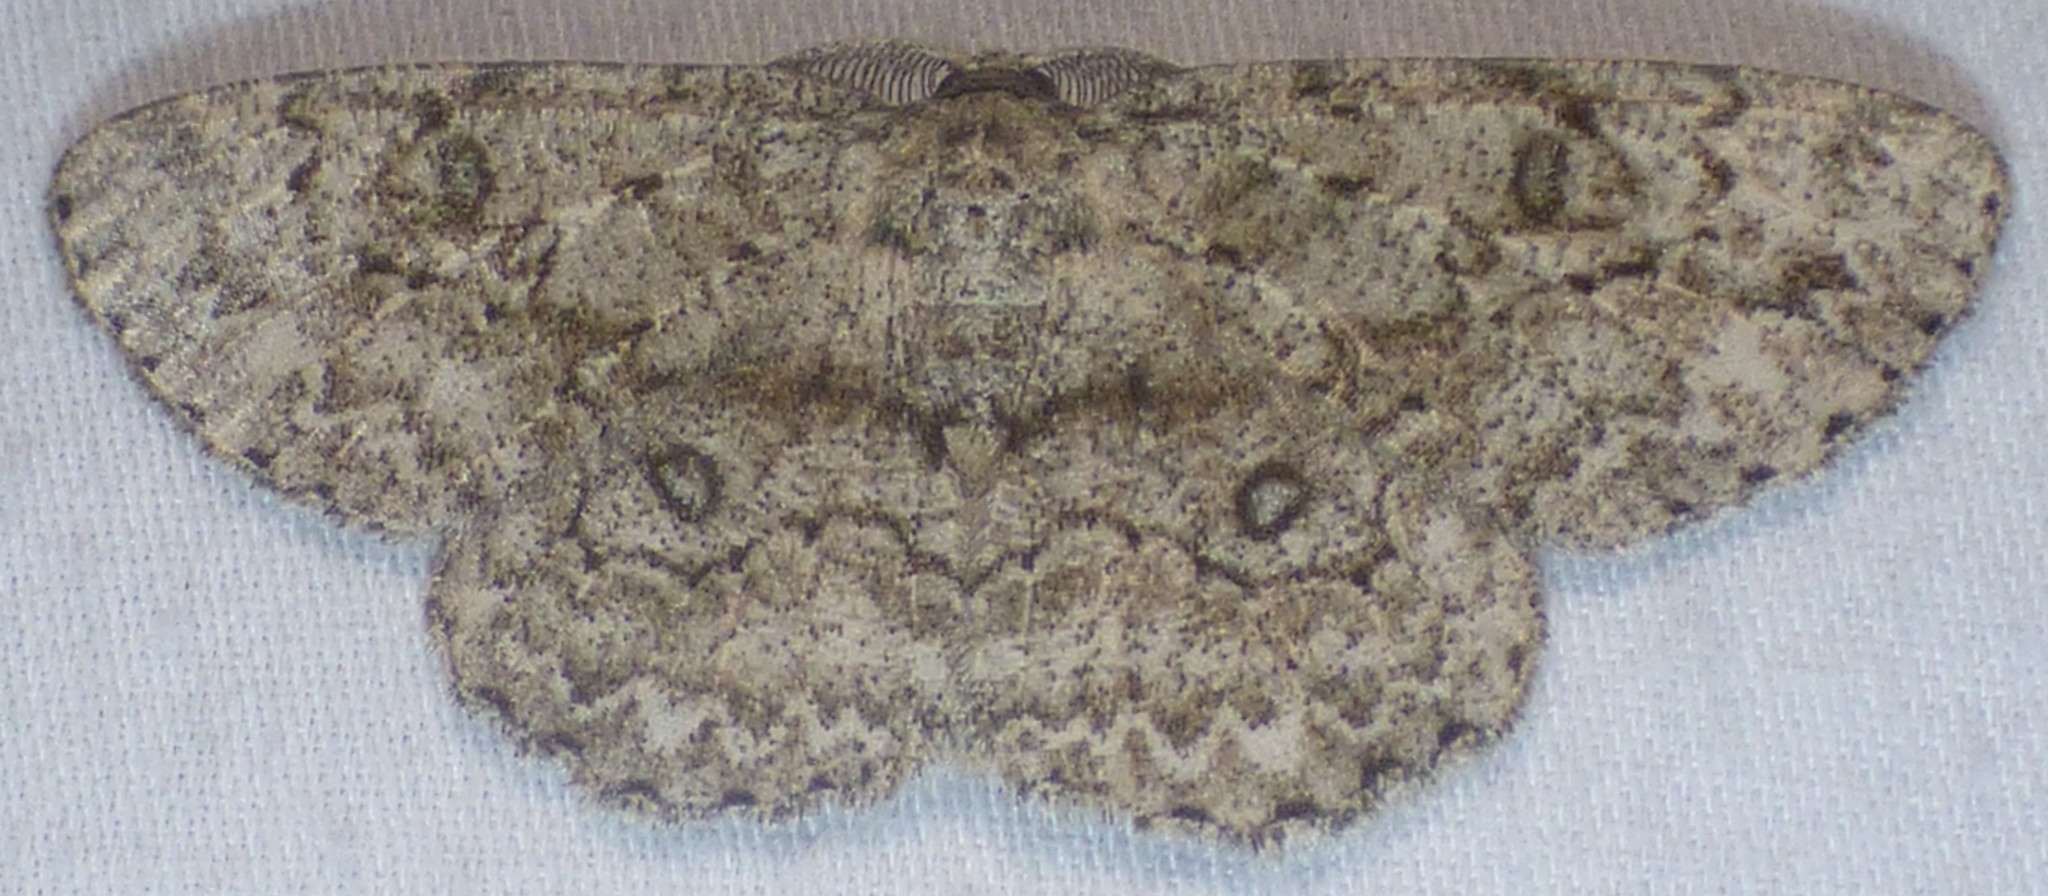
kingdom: Animalia
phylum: Arthropoda
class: Insecta
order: Lepidoptera
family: Geometridae
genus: Hypomecis
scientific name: Hypomecis umbrosaria
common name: Umber moth
